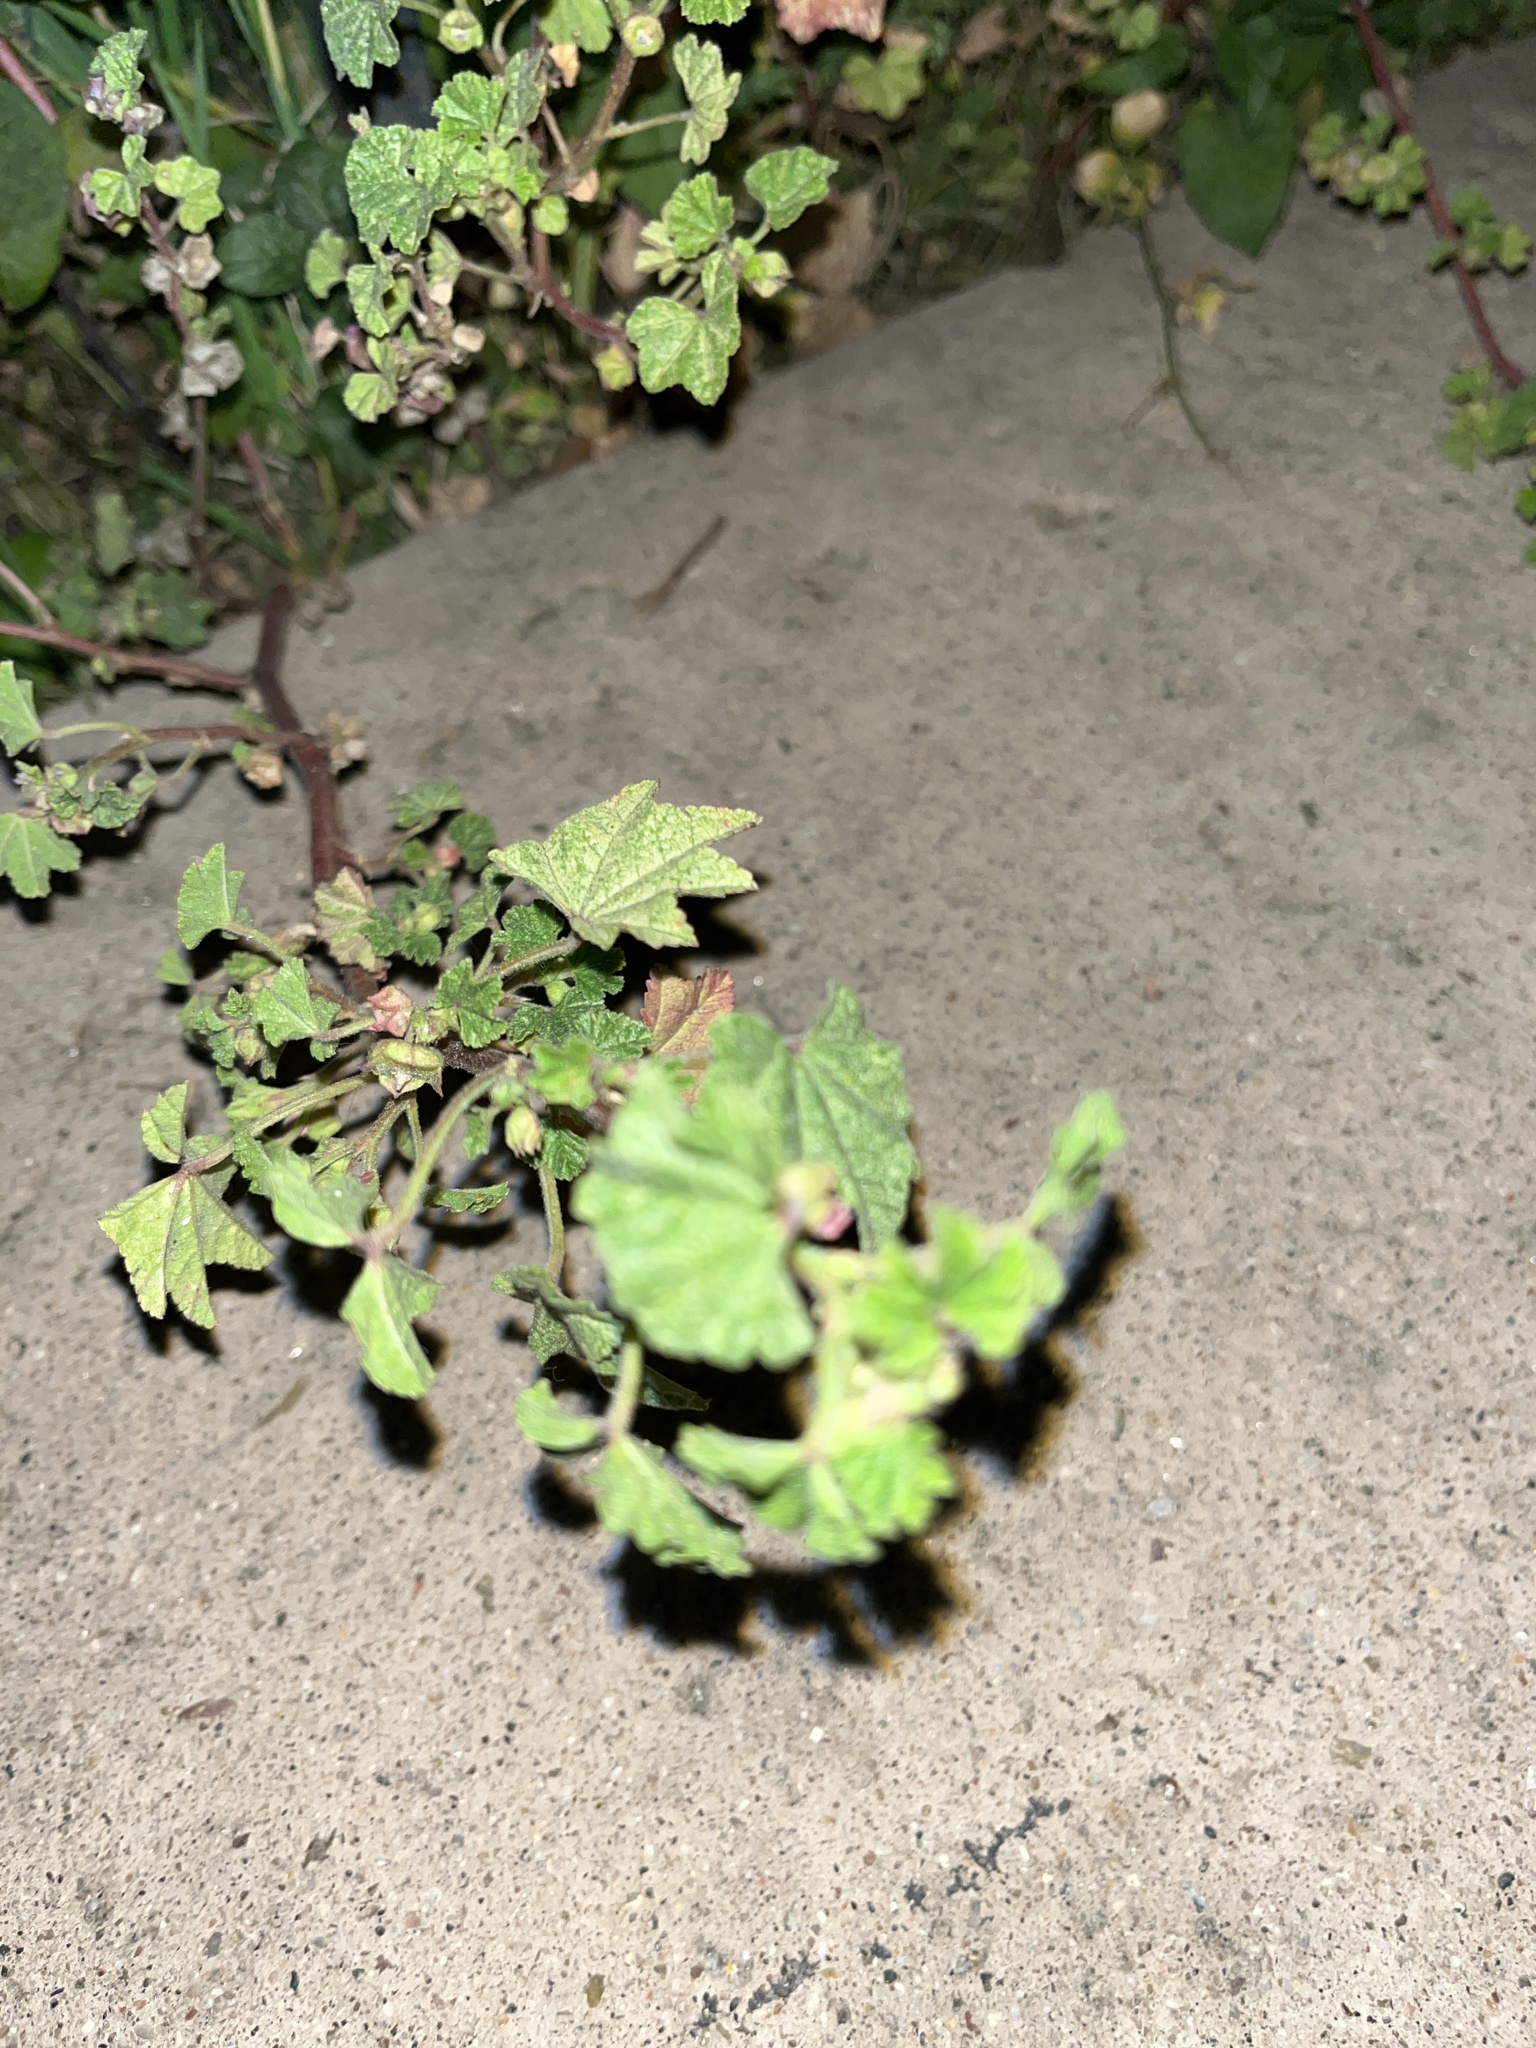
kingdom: Plantae
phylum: Tracheophyta
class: Magnoliopsida
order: Malvales
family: Malvaceae
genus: Malva
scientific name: Malva parviflora
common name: Least mallow
